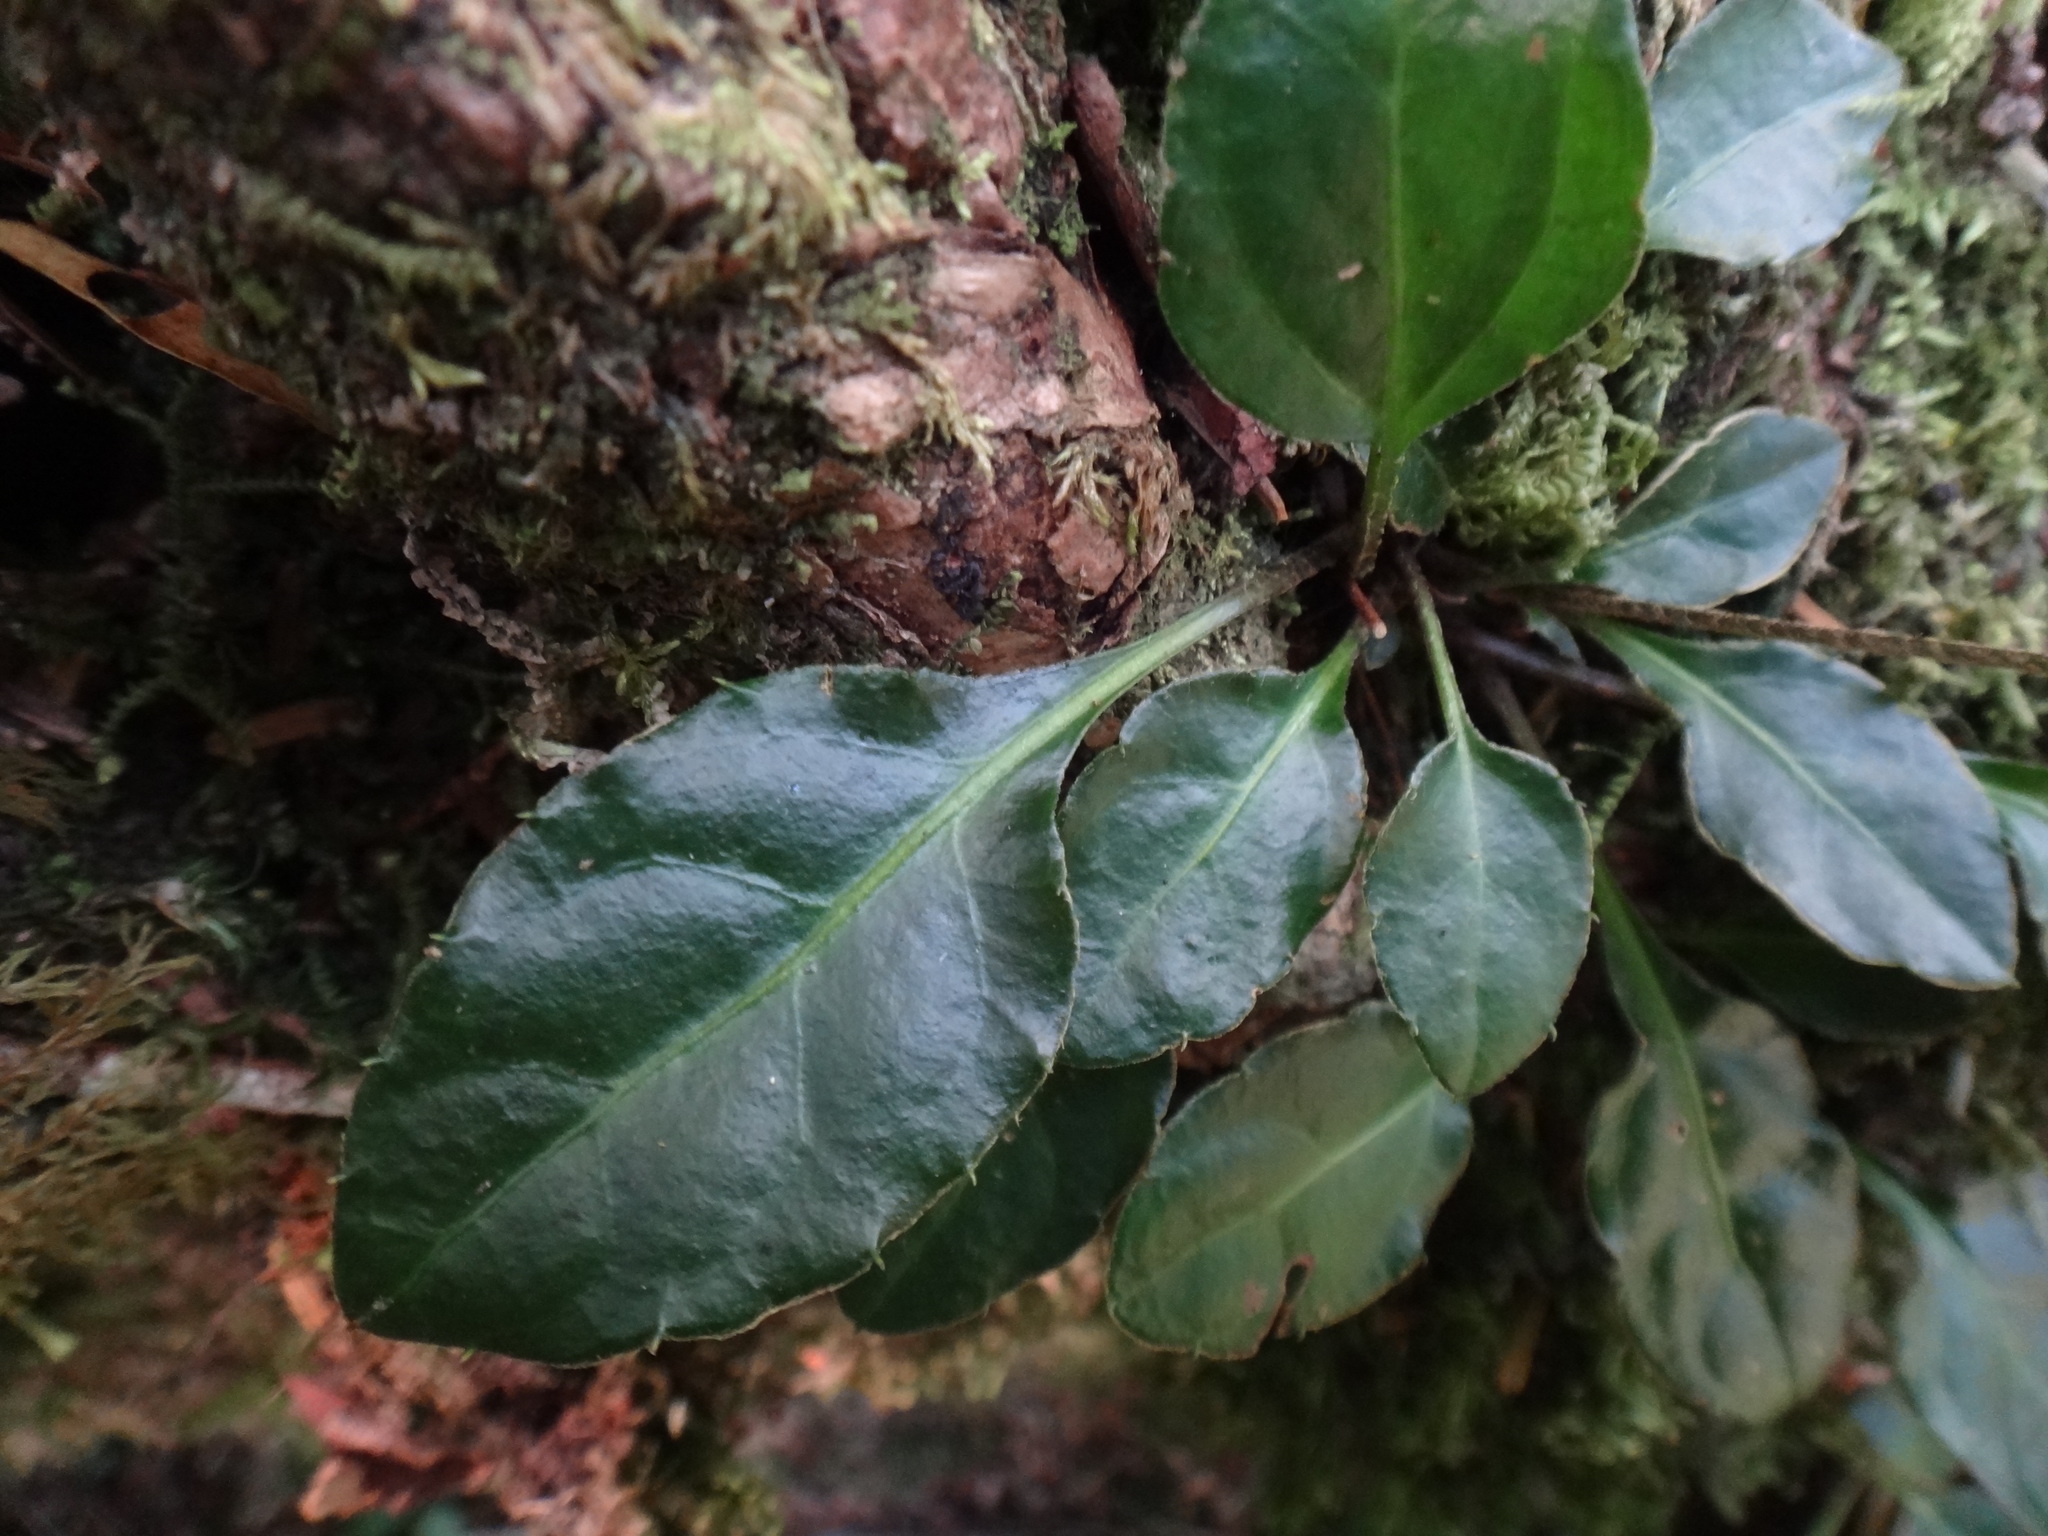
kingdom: Plantae
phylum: Tracheophyta
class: Magnoliopsida
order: Asterales
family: Asteraceae
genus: Ainsliaea
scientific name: Ainsliaea henryi
